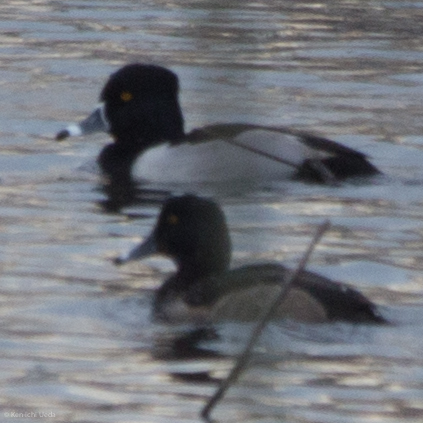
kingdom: Animalia
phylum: Chordata
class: Aves
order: Anseriformes
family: Anatidae
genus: Aythya
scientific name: Aythya collaris
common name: Ring-necked duck
